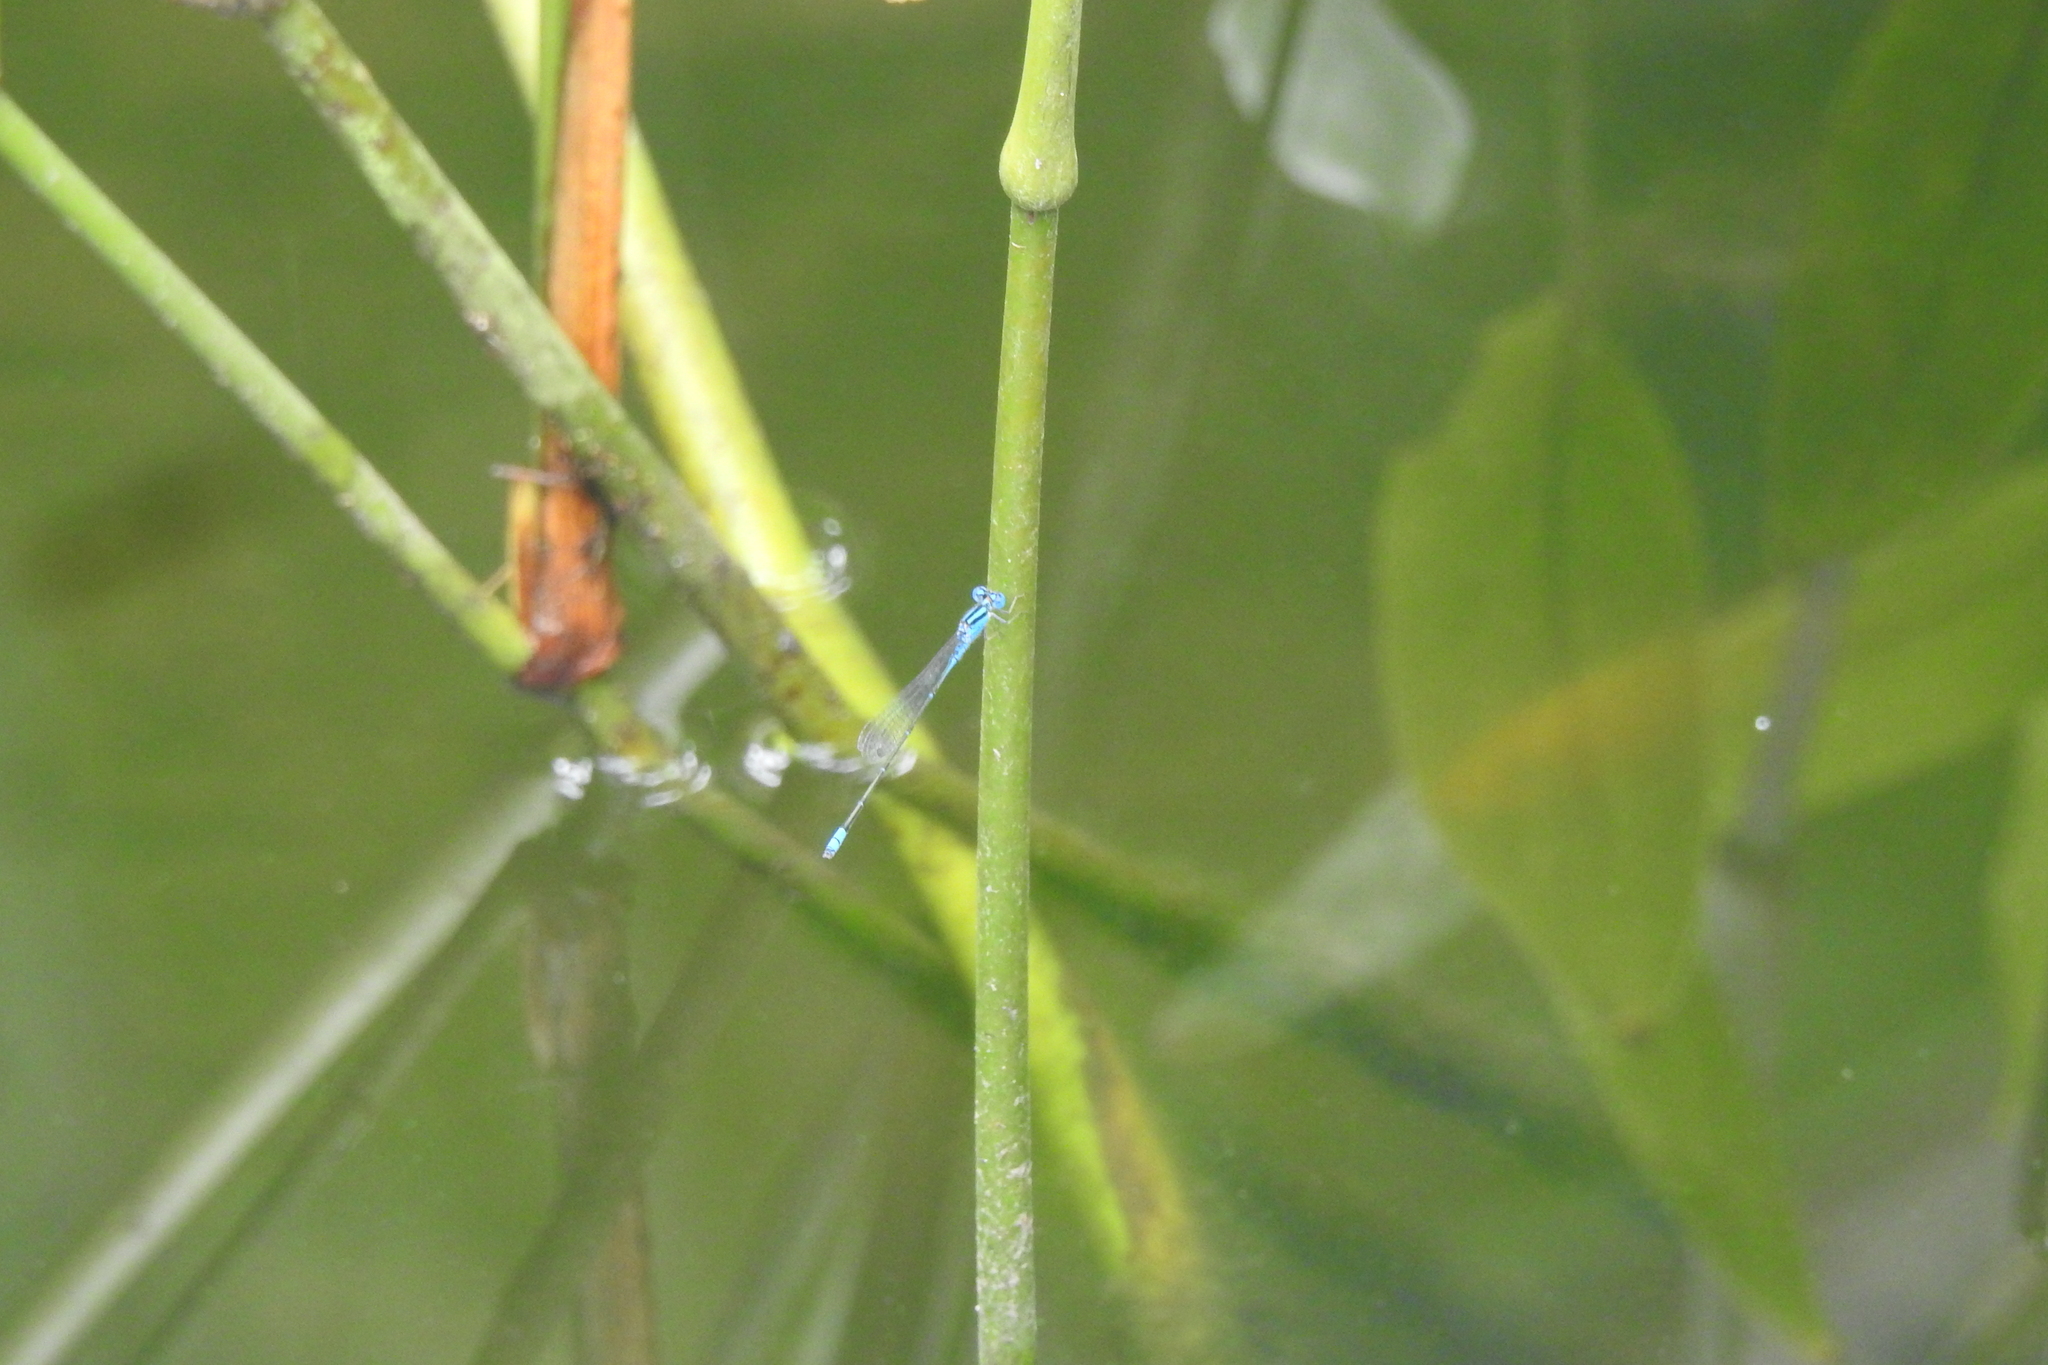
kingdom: Animalia
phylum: Arthropoda
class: Insecta
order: Odonata
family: Coenagrionidae
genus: Pseudagrion
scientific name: Pseudagrion microcephalum
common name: Blue riverdamsel
